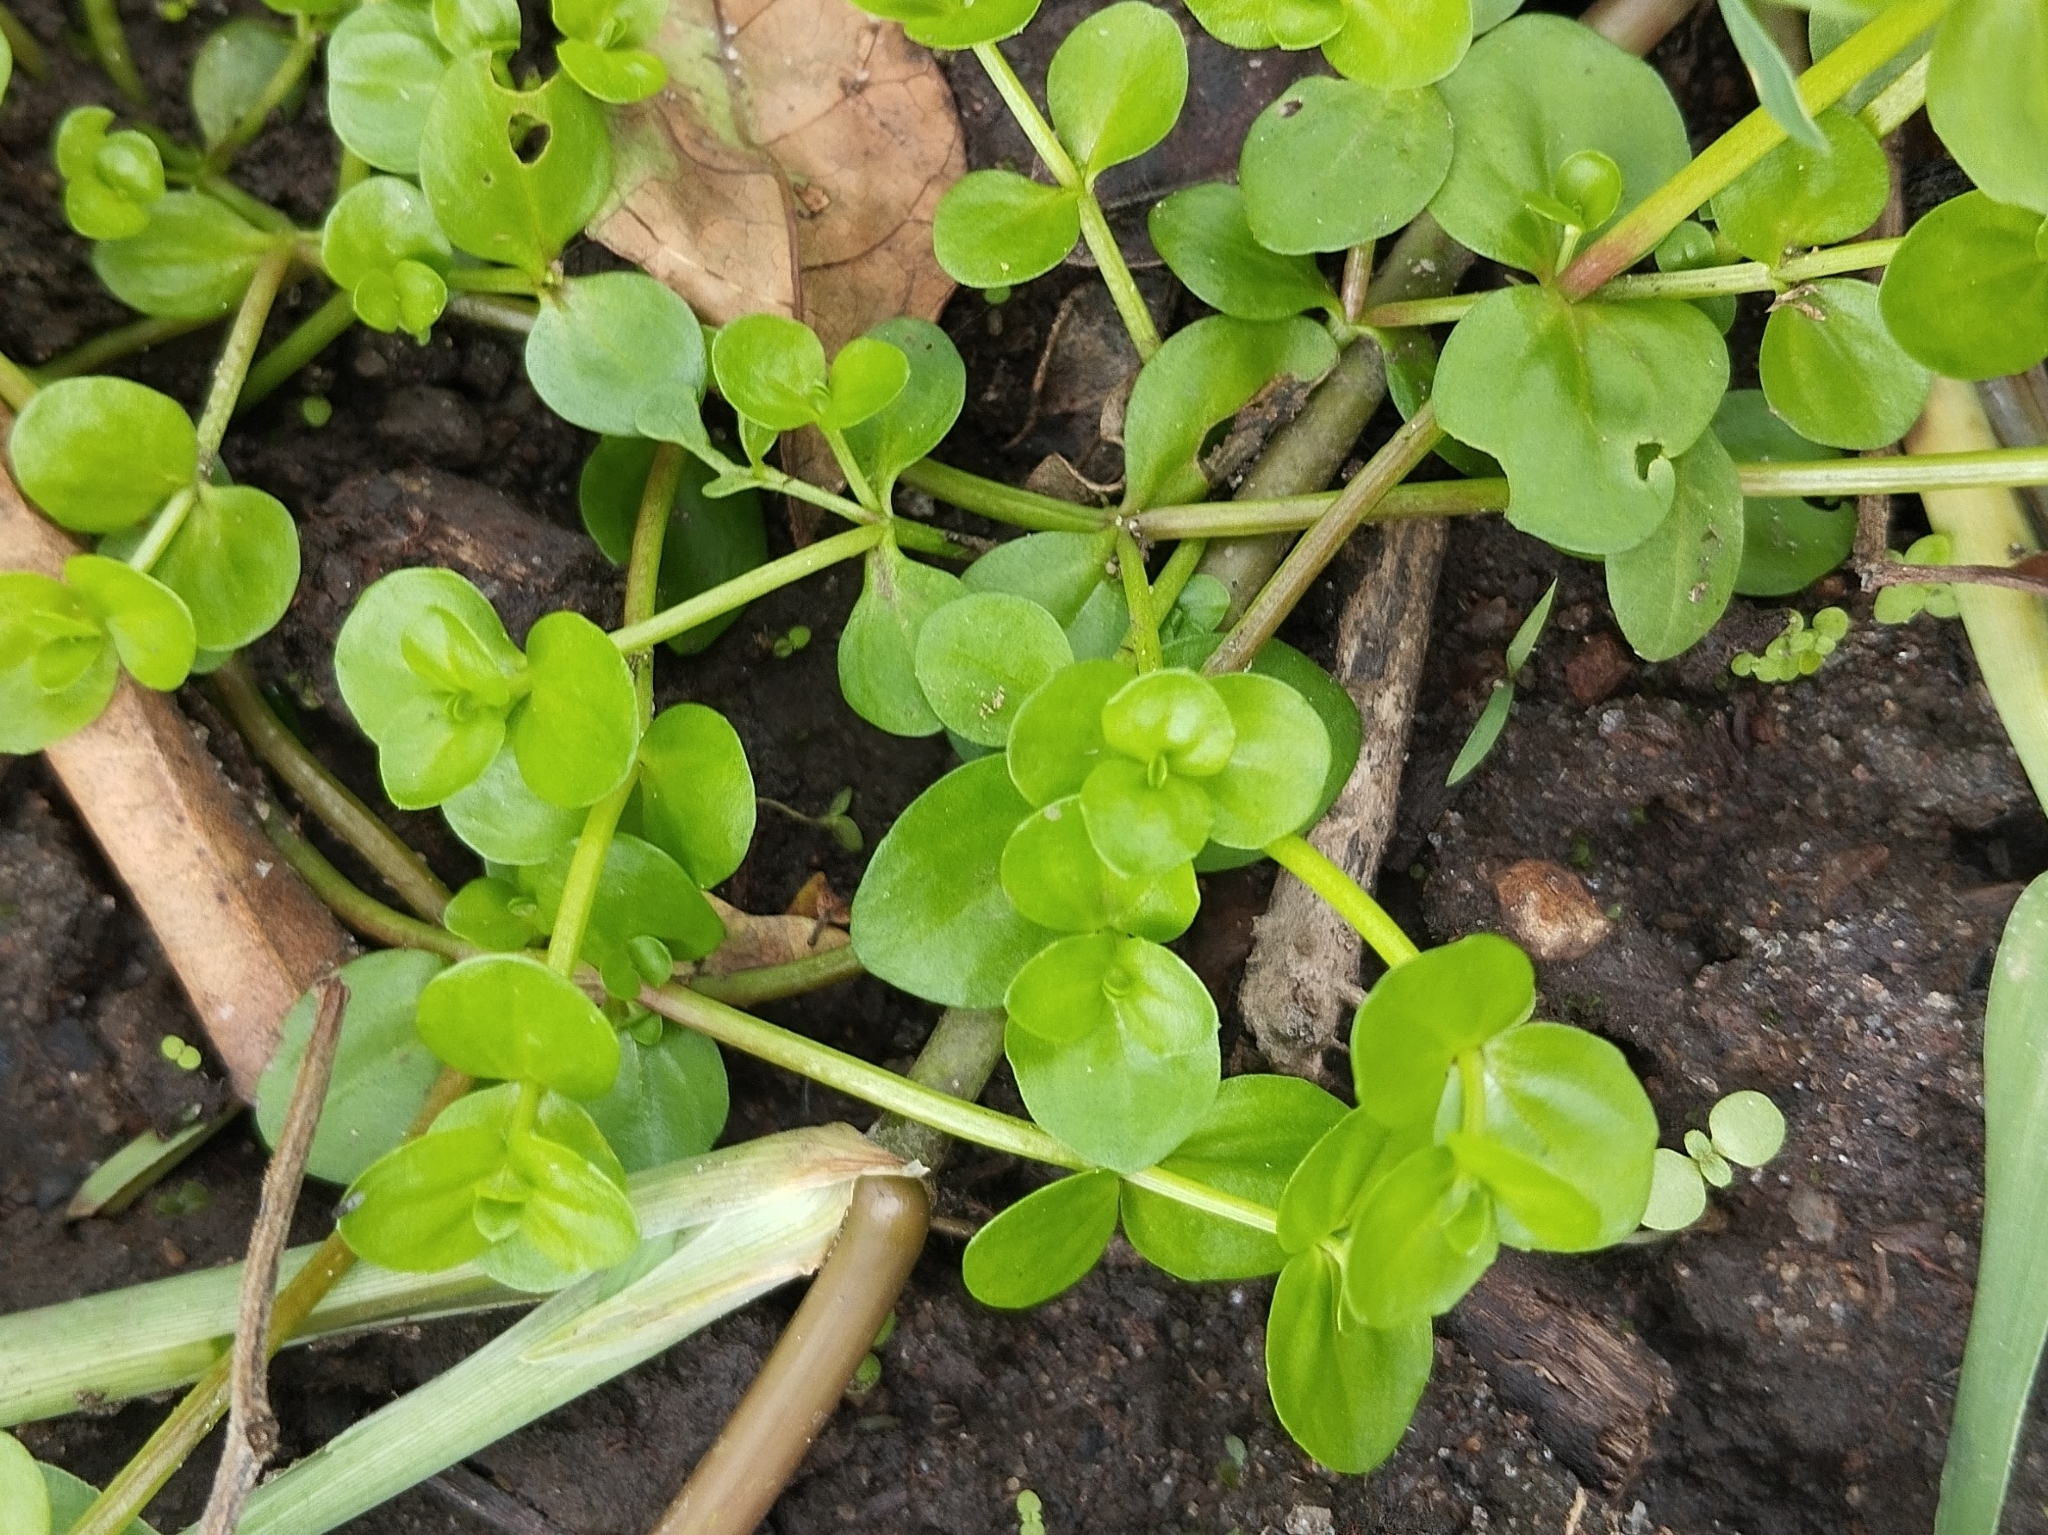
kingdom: Plantae
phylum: Tracheophyta
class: Magnoliopsida
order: Lamiales
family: Linderniaceae
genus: Lindernia
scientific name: Lindernia rotundifolia
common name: Baby’s tears
